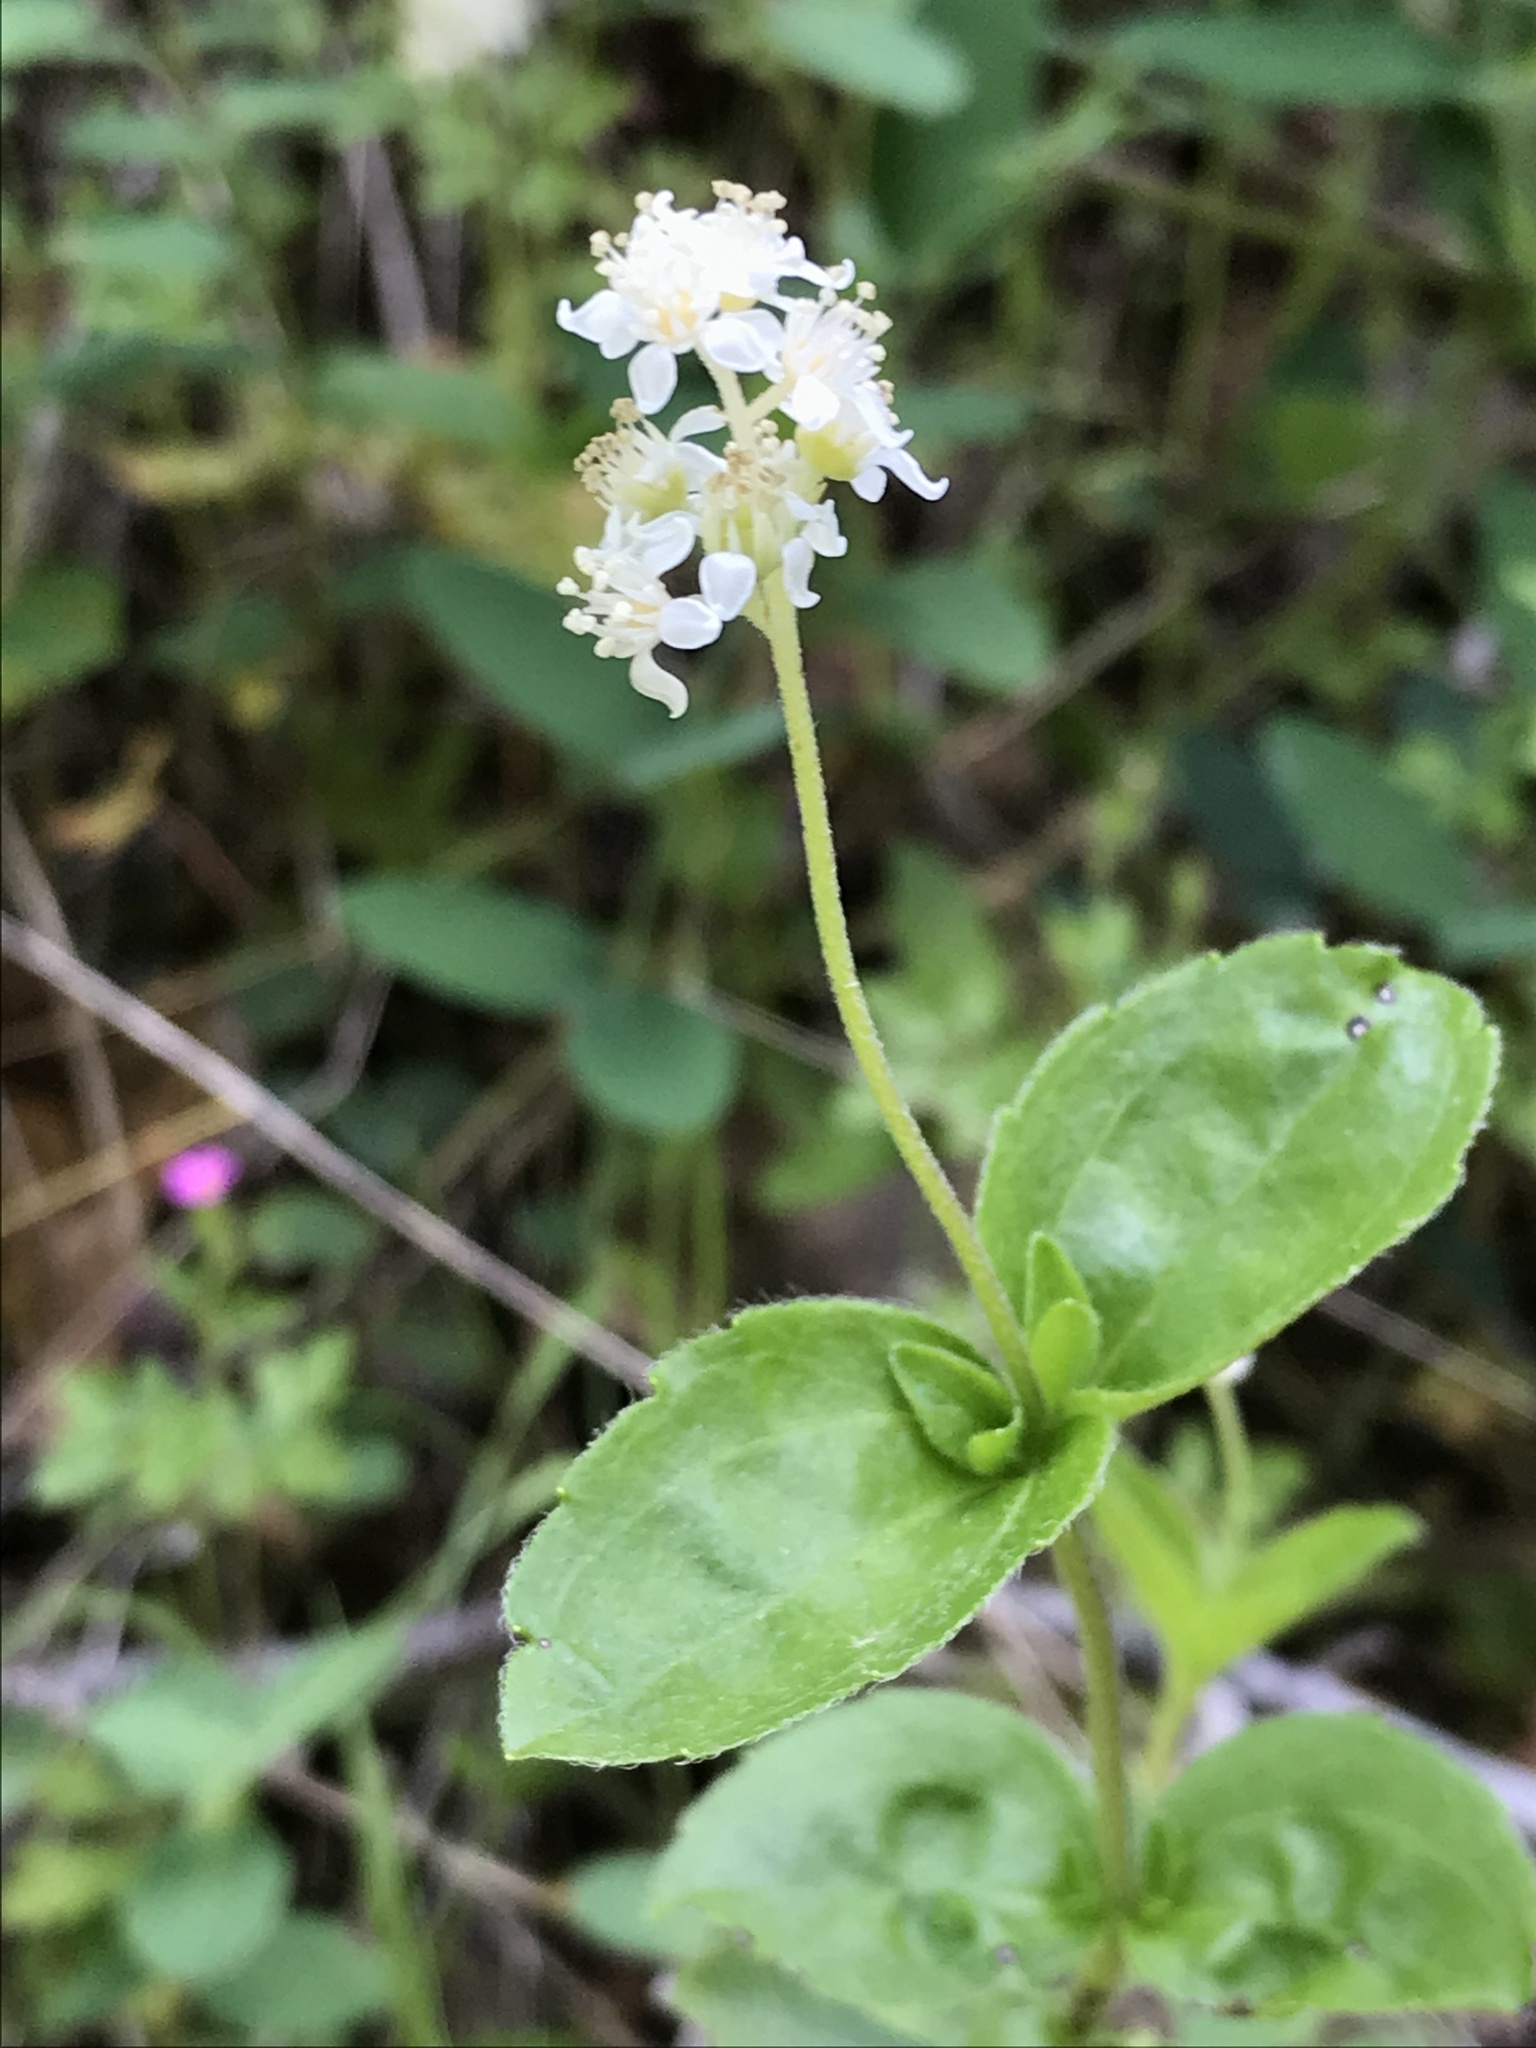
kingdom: Plantae
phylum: Tracheophyta
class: Magnoliopsida
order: Cornales
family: Hydrangeaceae
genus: Whipplea
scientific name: Whipplea modesta
